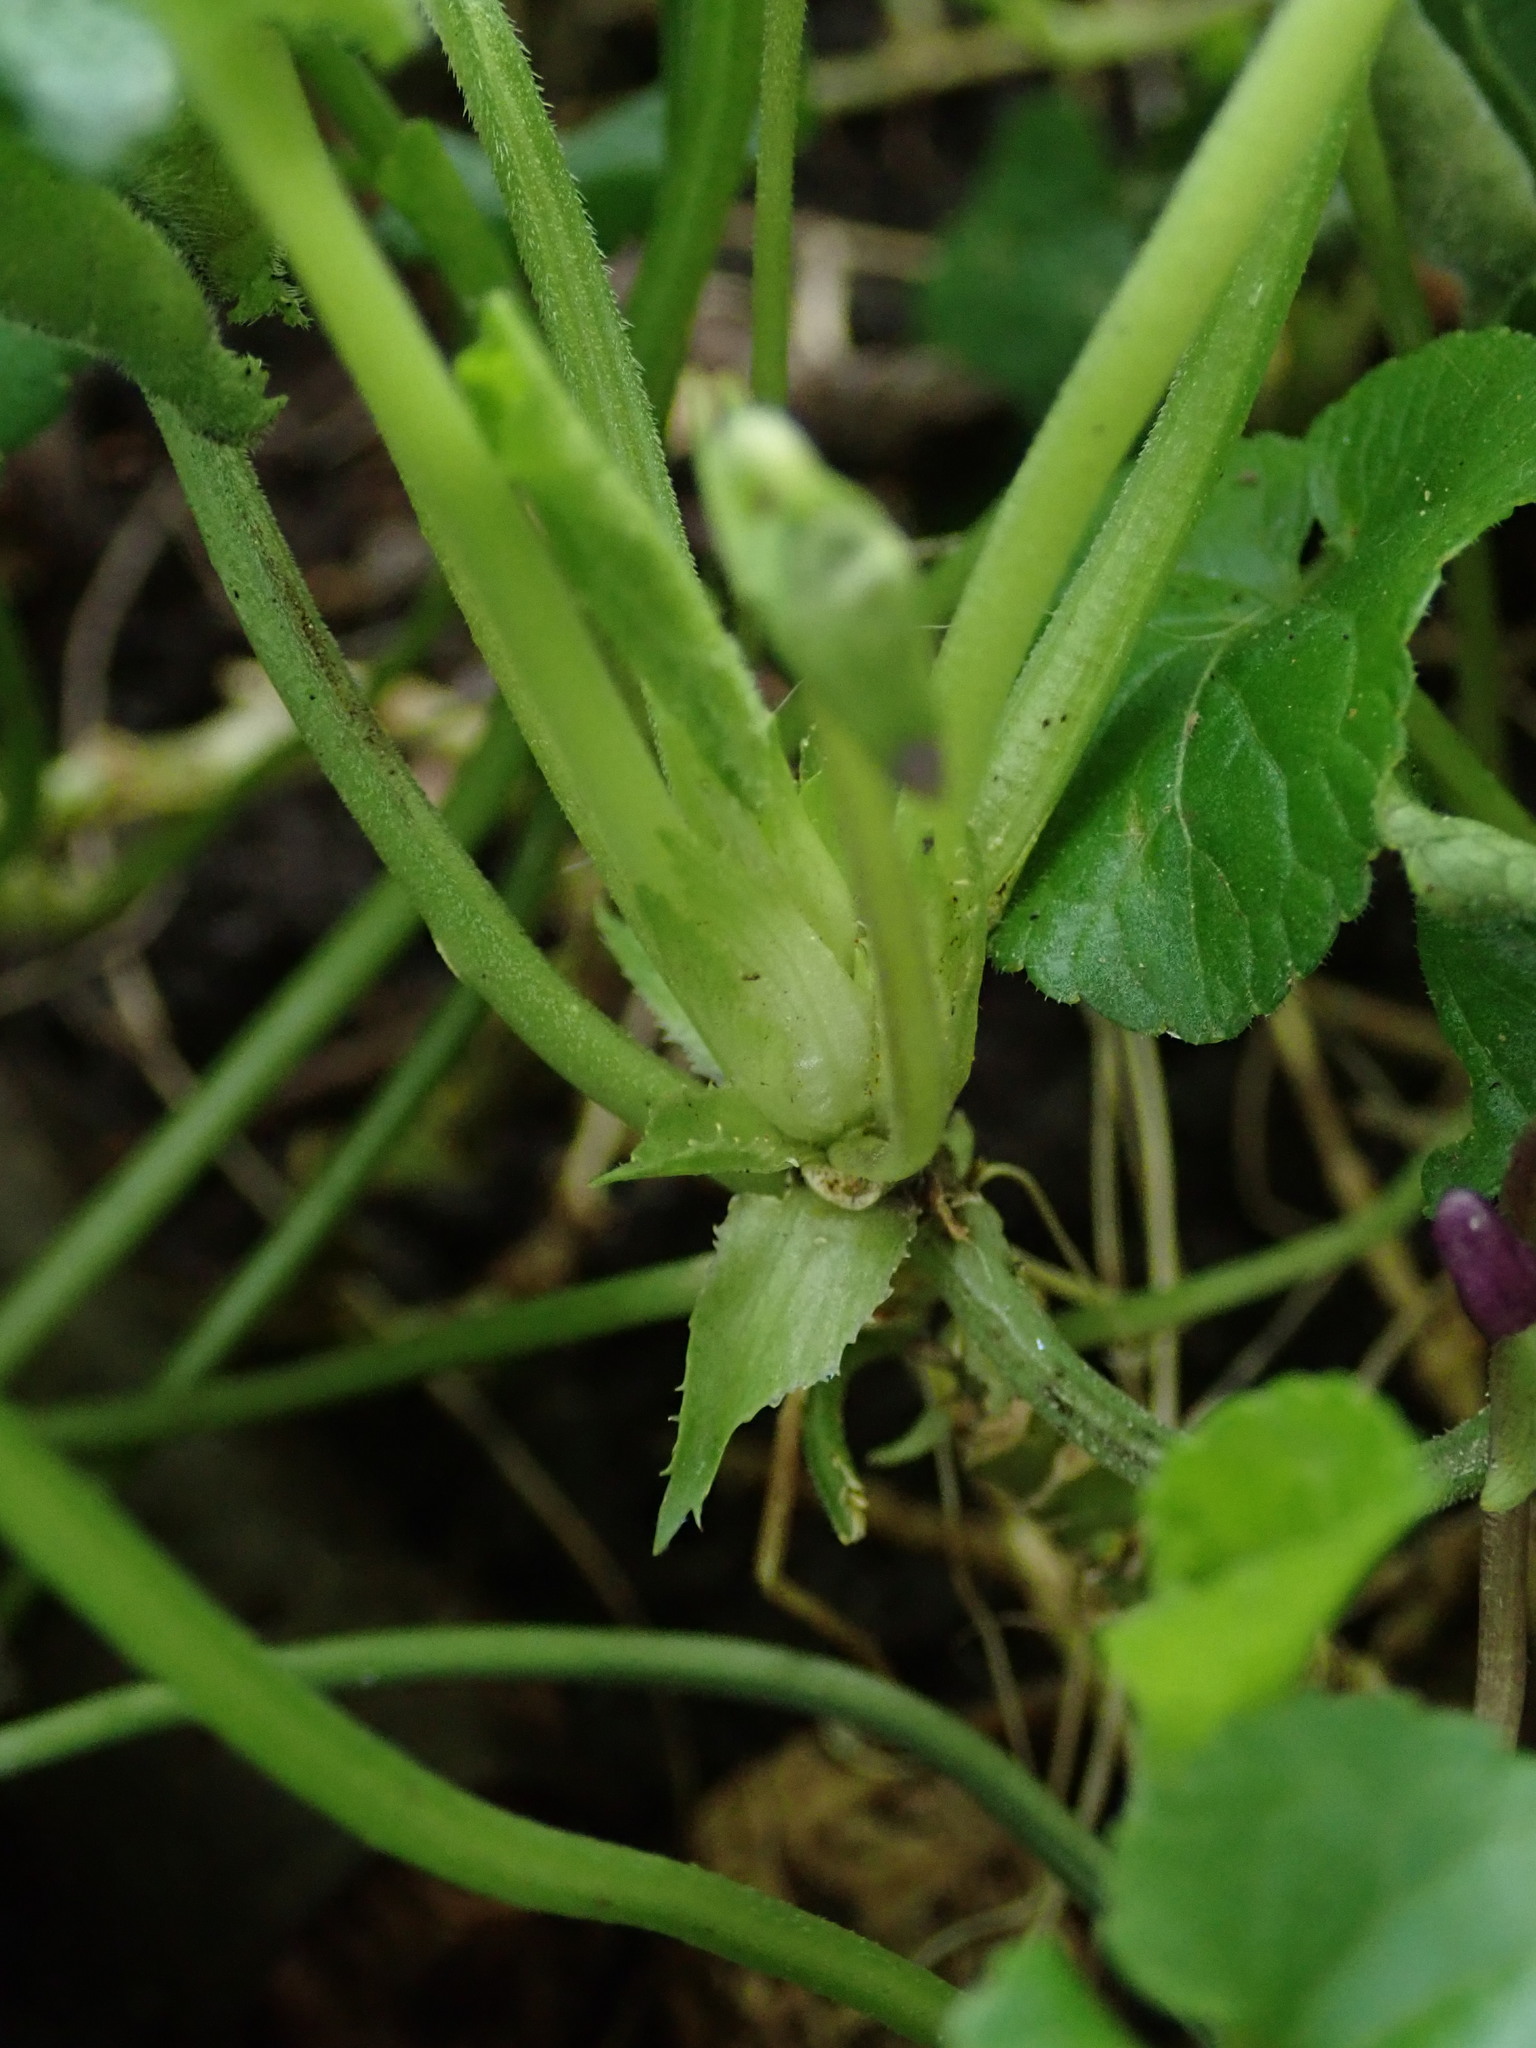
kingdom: Plantae
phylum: Tracheophyta
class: Magnoliopsida
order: Malpighiales
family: Violaceae
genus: Viola
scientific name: Viola odorata
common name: Sweet violet
